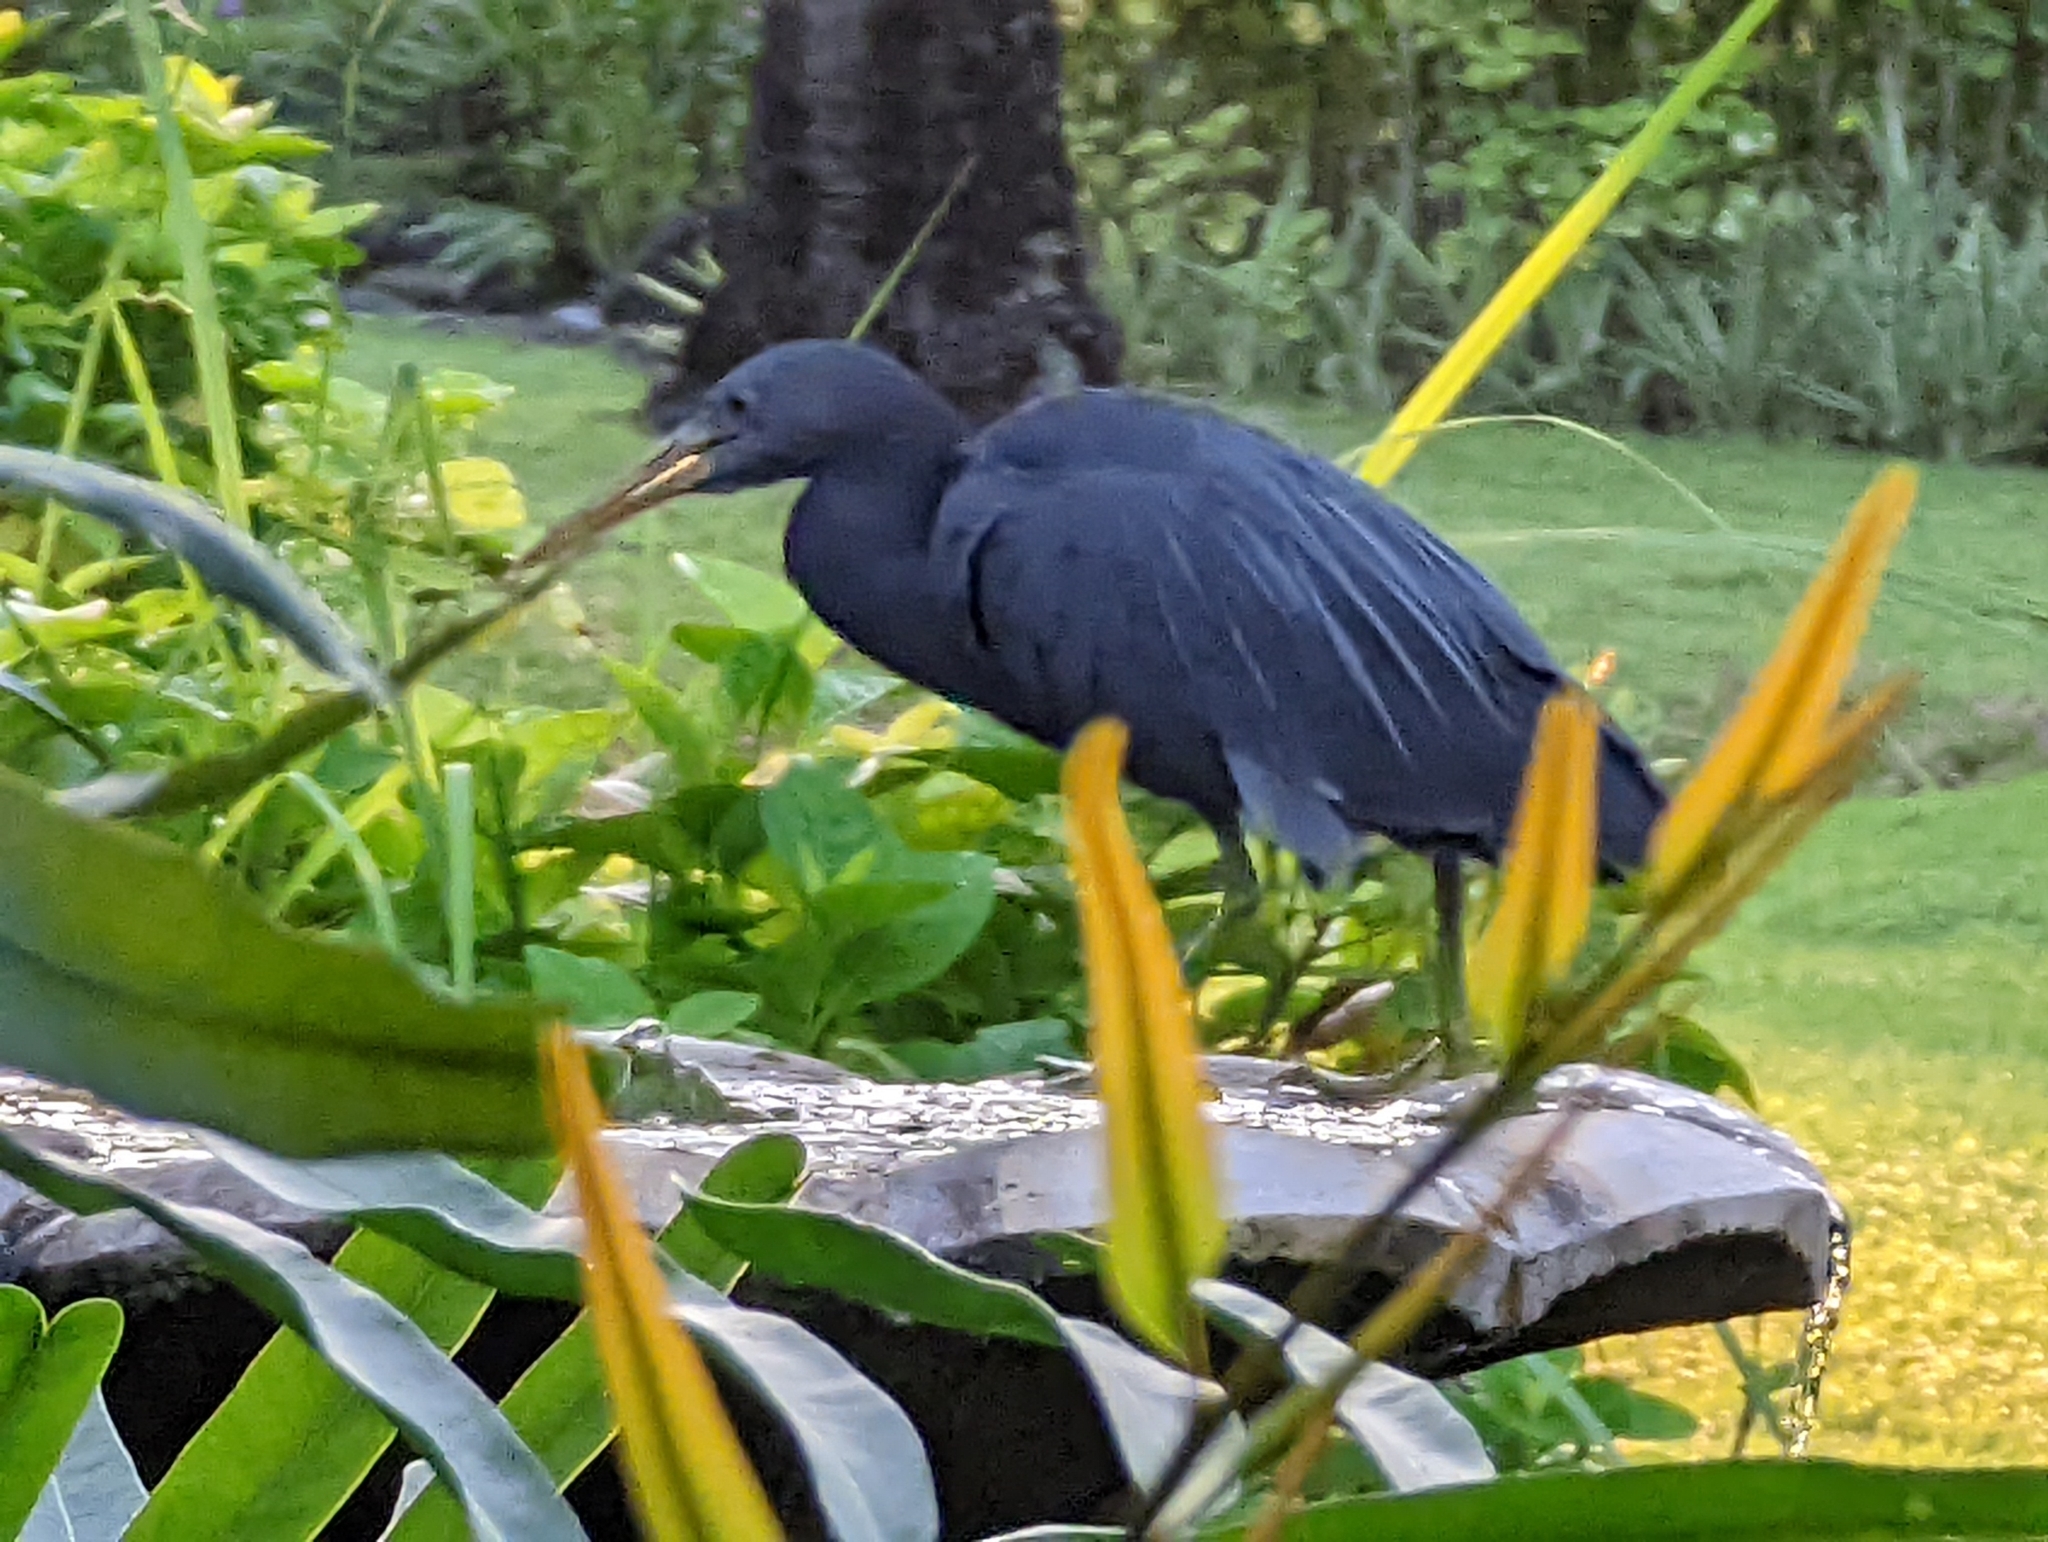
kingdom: Animalia
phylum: Chordata
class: Aves
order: Pelecaniformes
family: Ardeidae
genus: Egretta
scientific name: Egretta sacra
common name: Pacific reef heron
